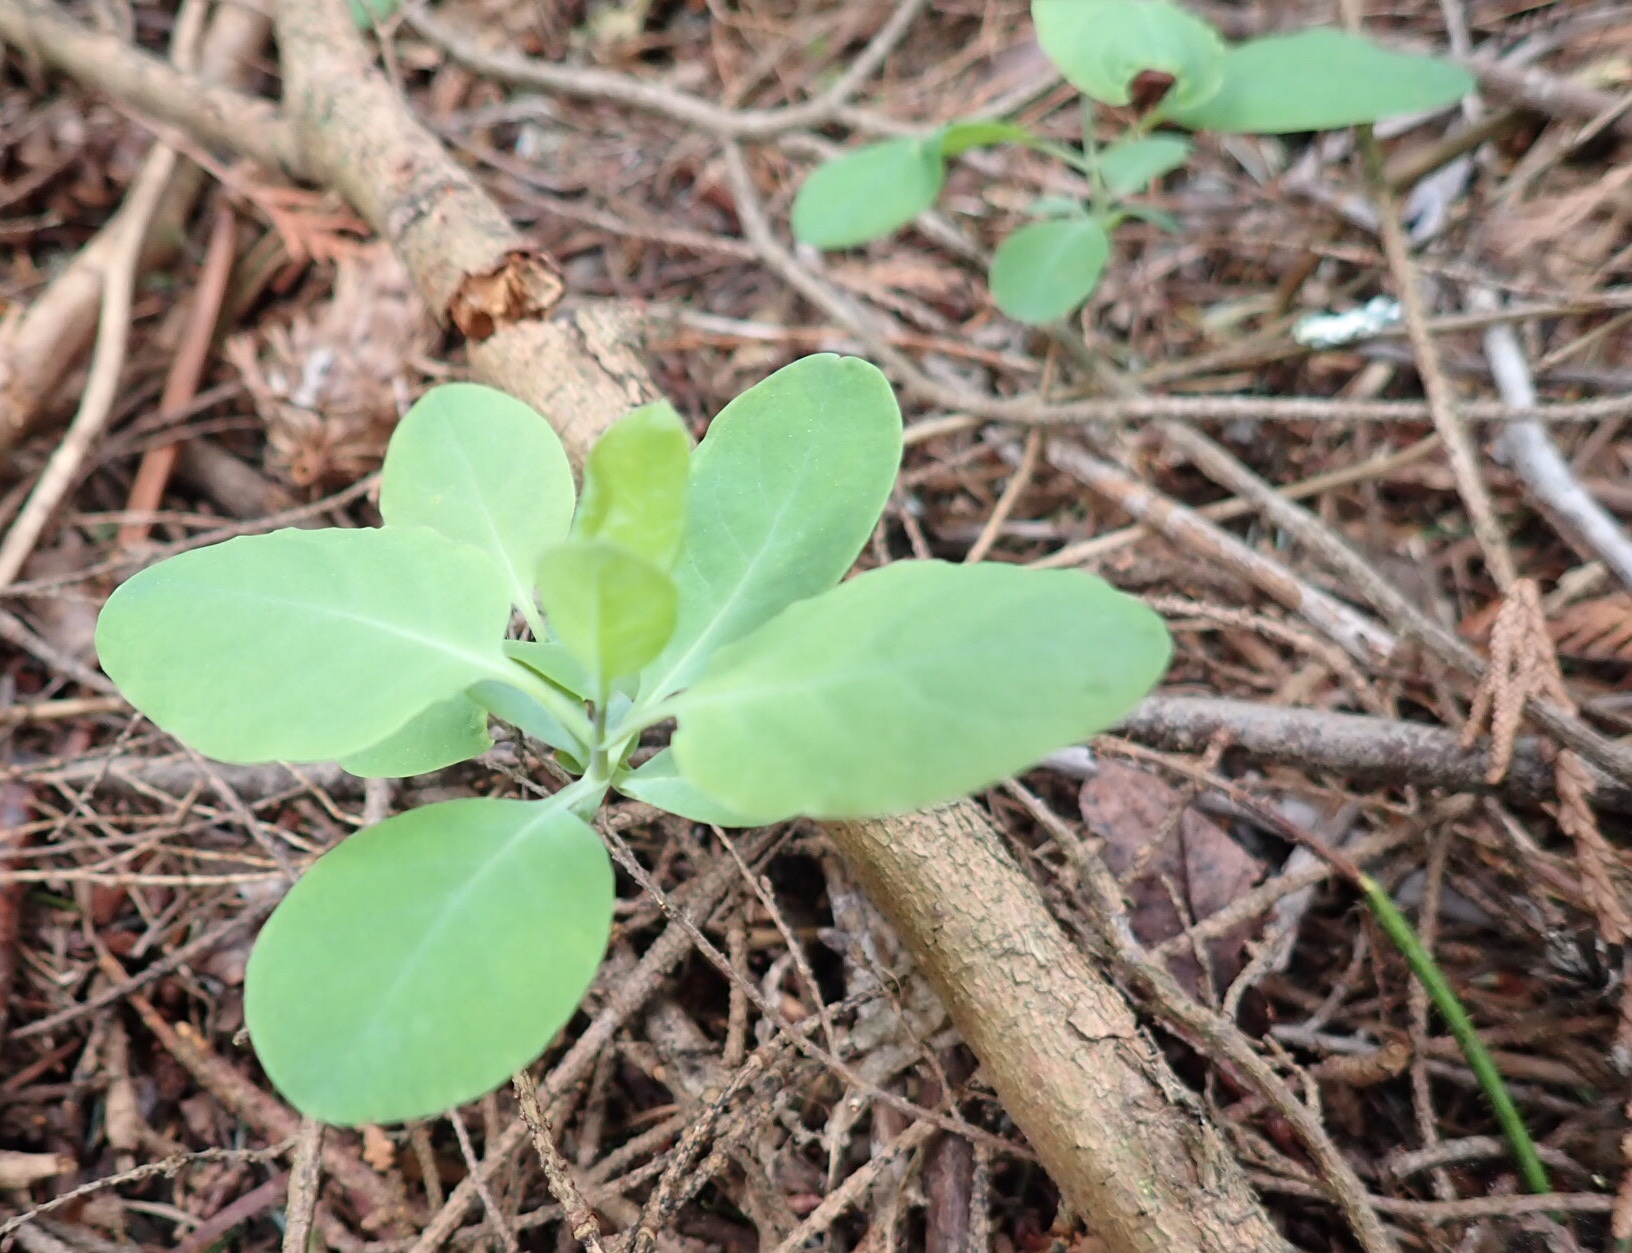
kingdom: Plantae
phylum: Tracheophyta
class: Magnoliopsida
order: Dipsacales
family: Caprifoliaceae
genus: Lonicera
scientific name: Lonicera ciliosa
